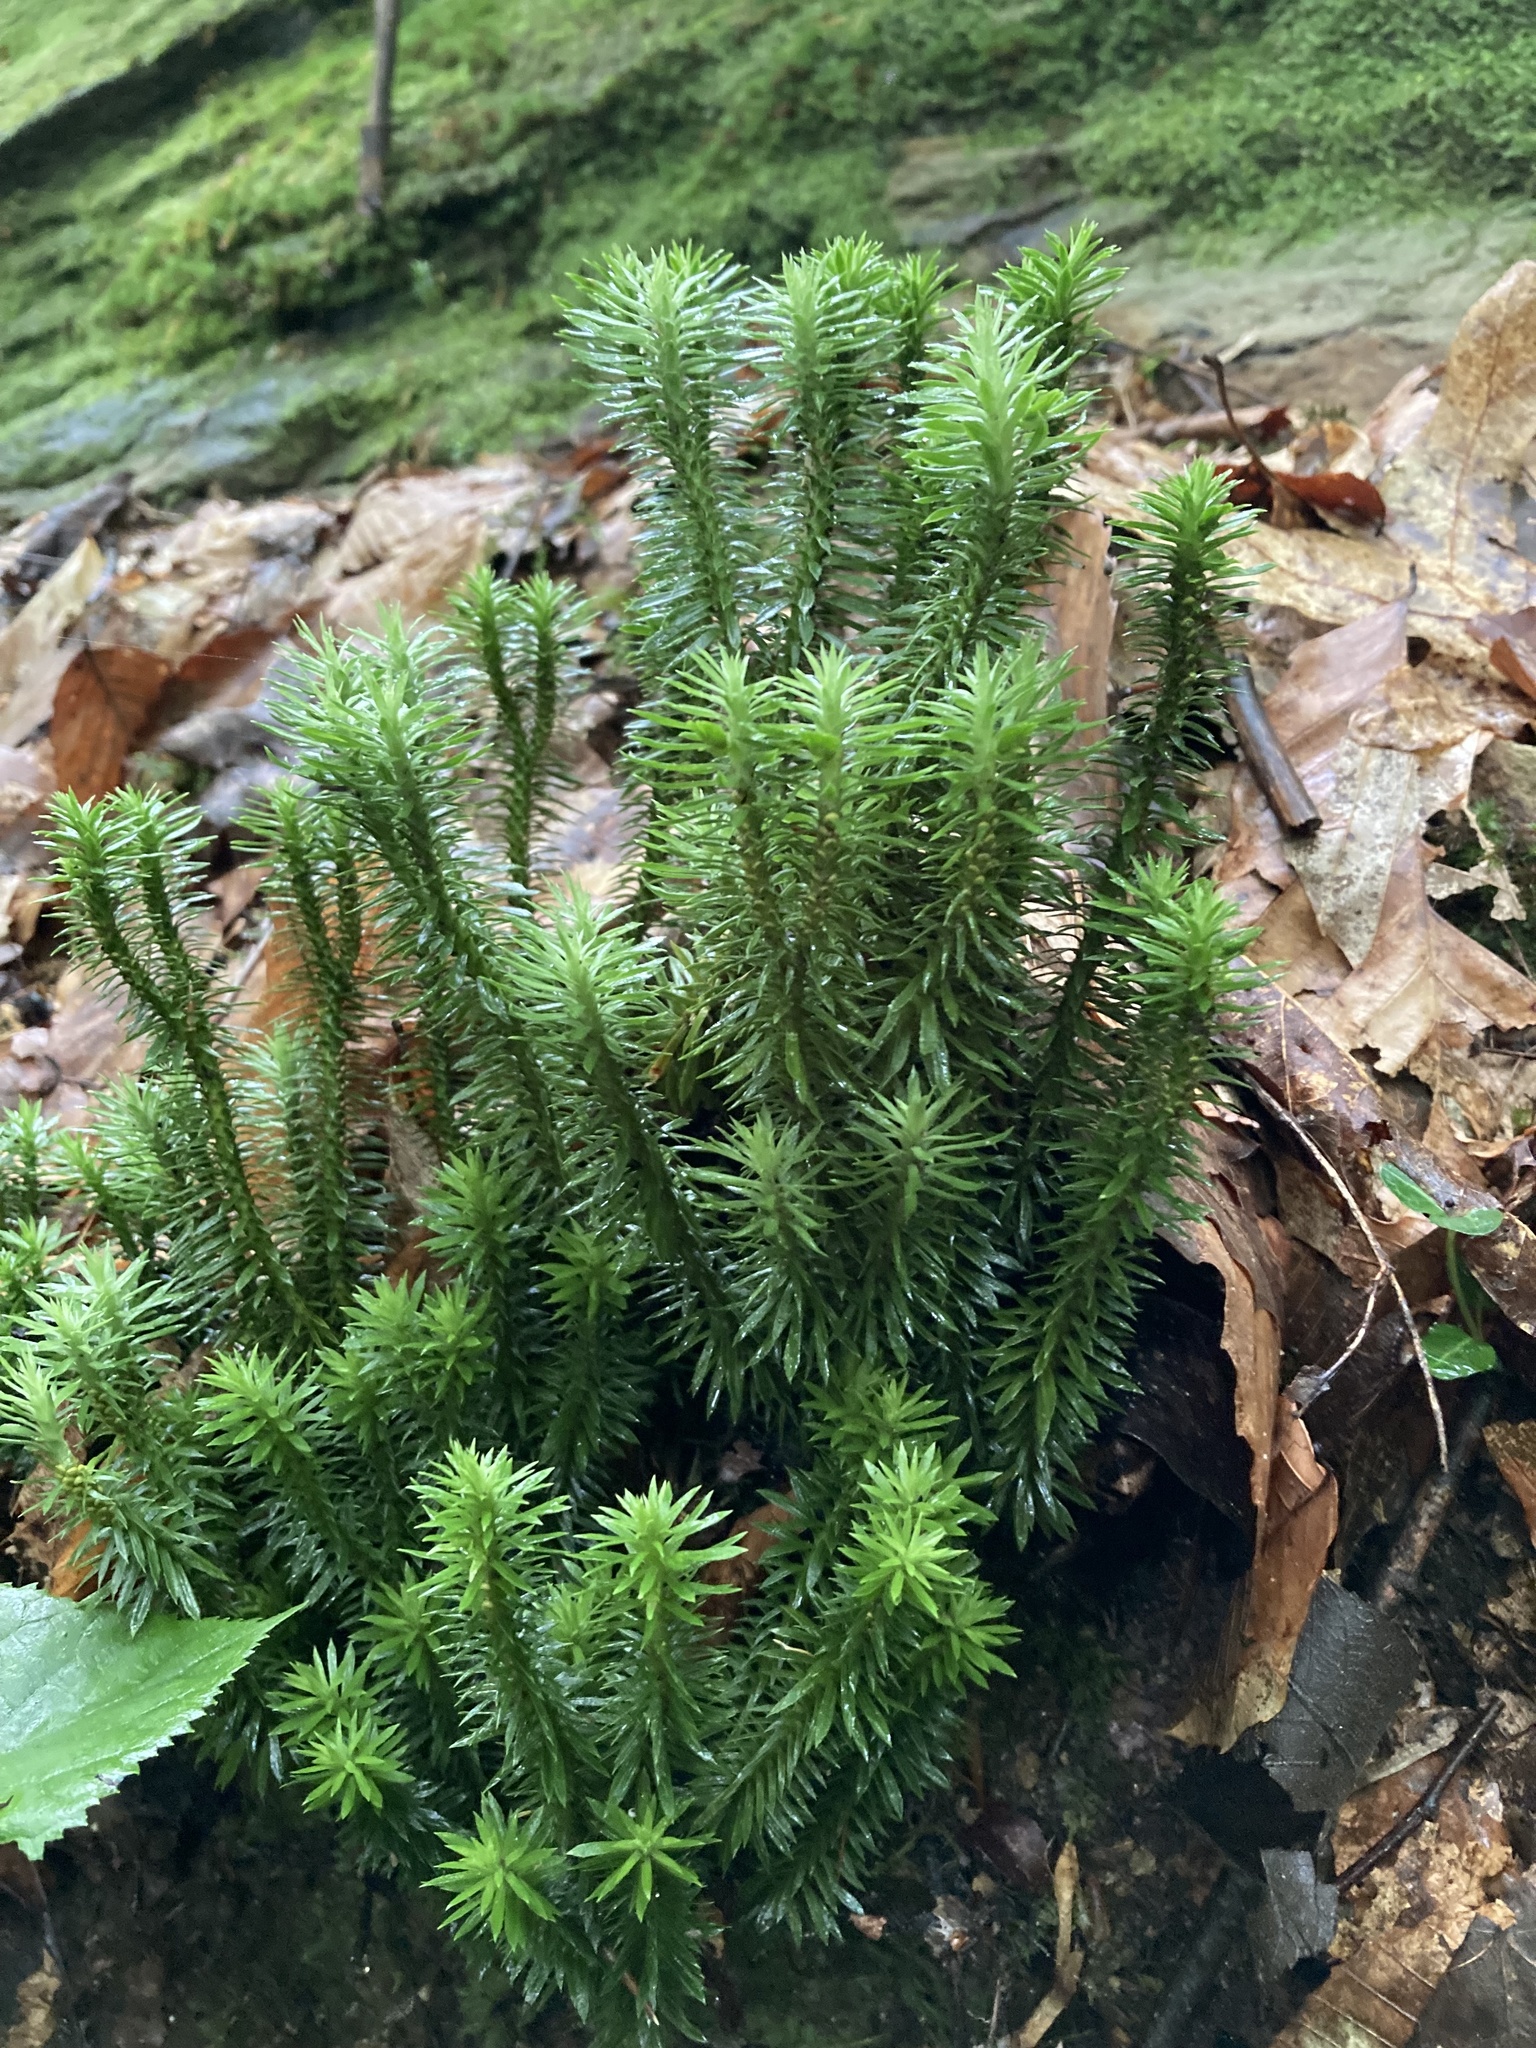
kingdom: Plantae
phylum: Tracheophyta
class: Lycopodiopsida
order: Lycopodiales
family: Lycopodiaceae
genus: Huperzia
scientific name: Huperzia lucidula
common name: Shining clubmoss
